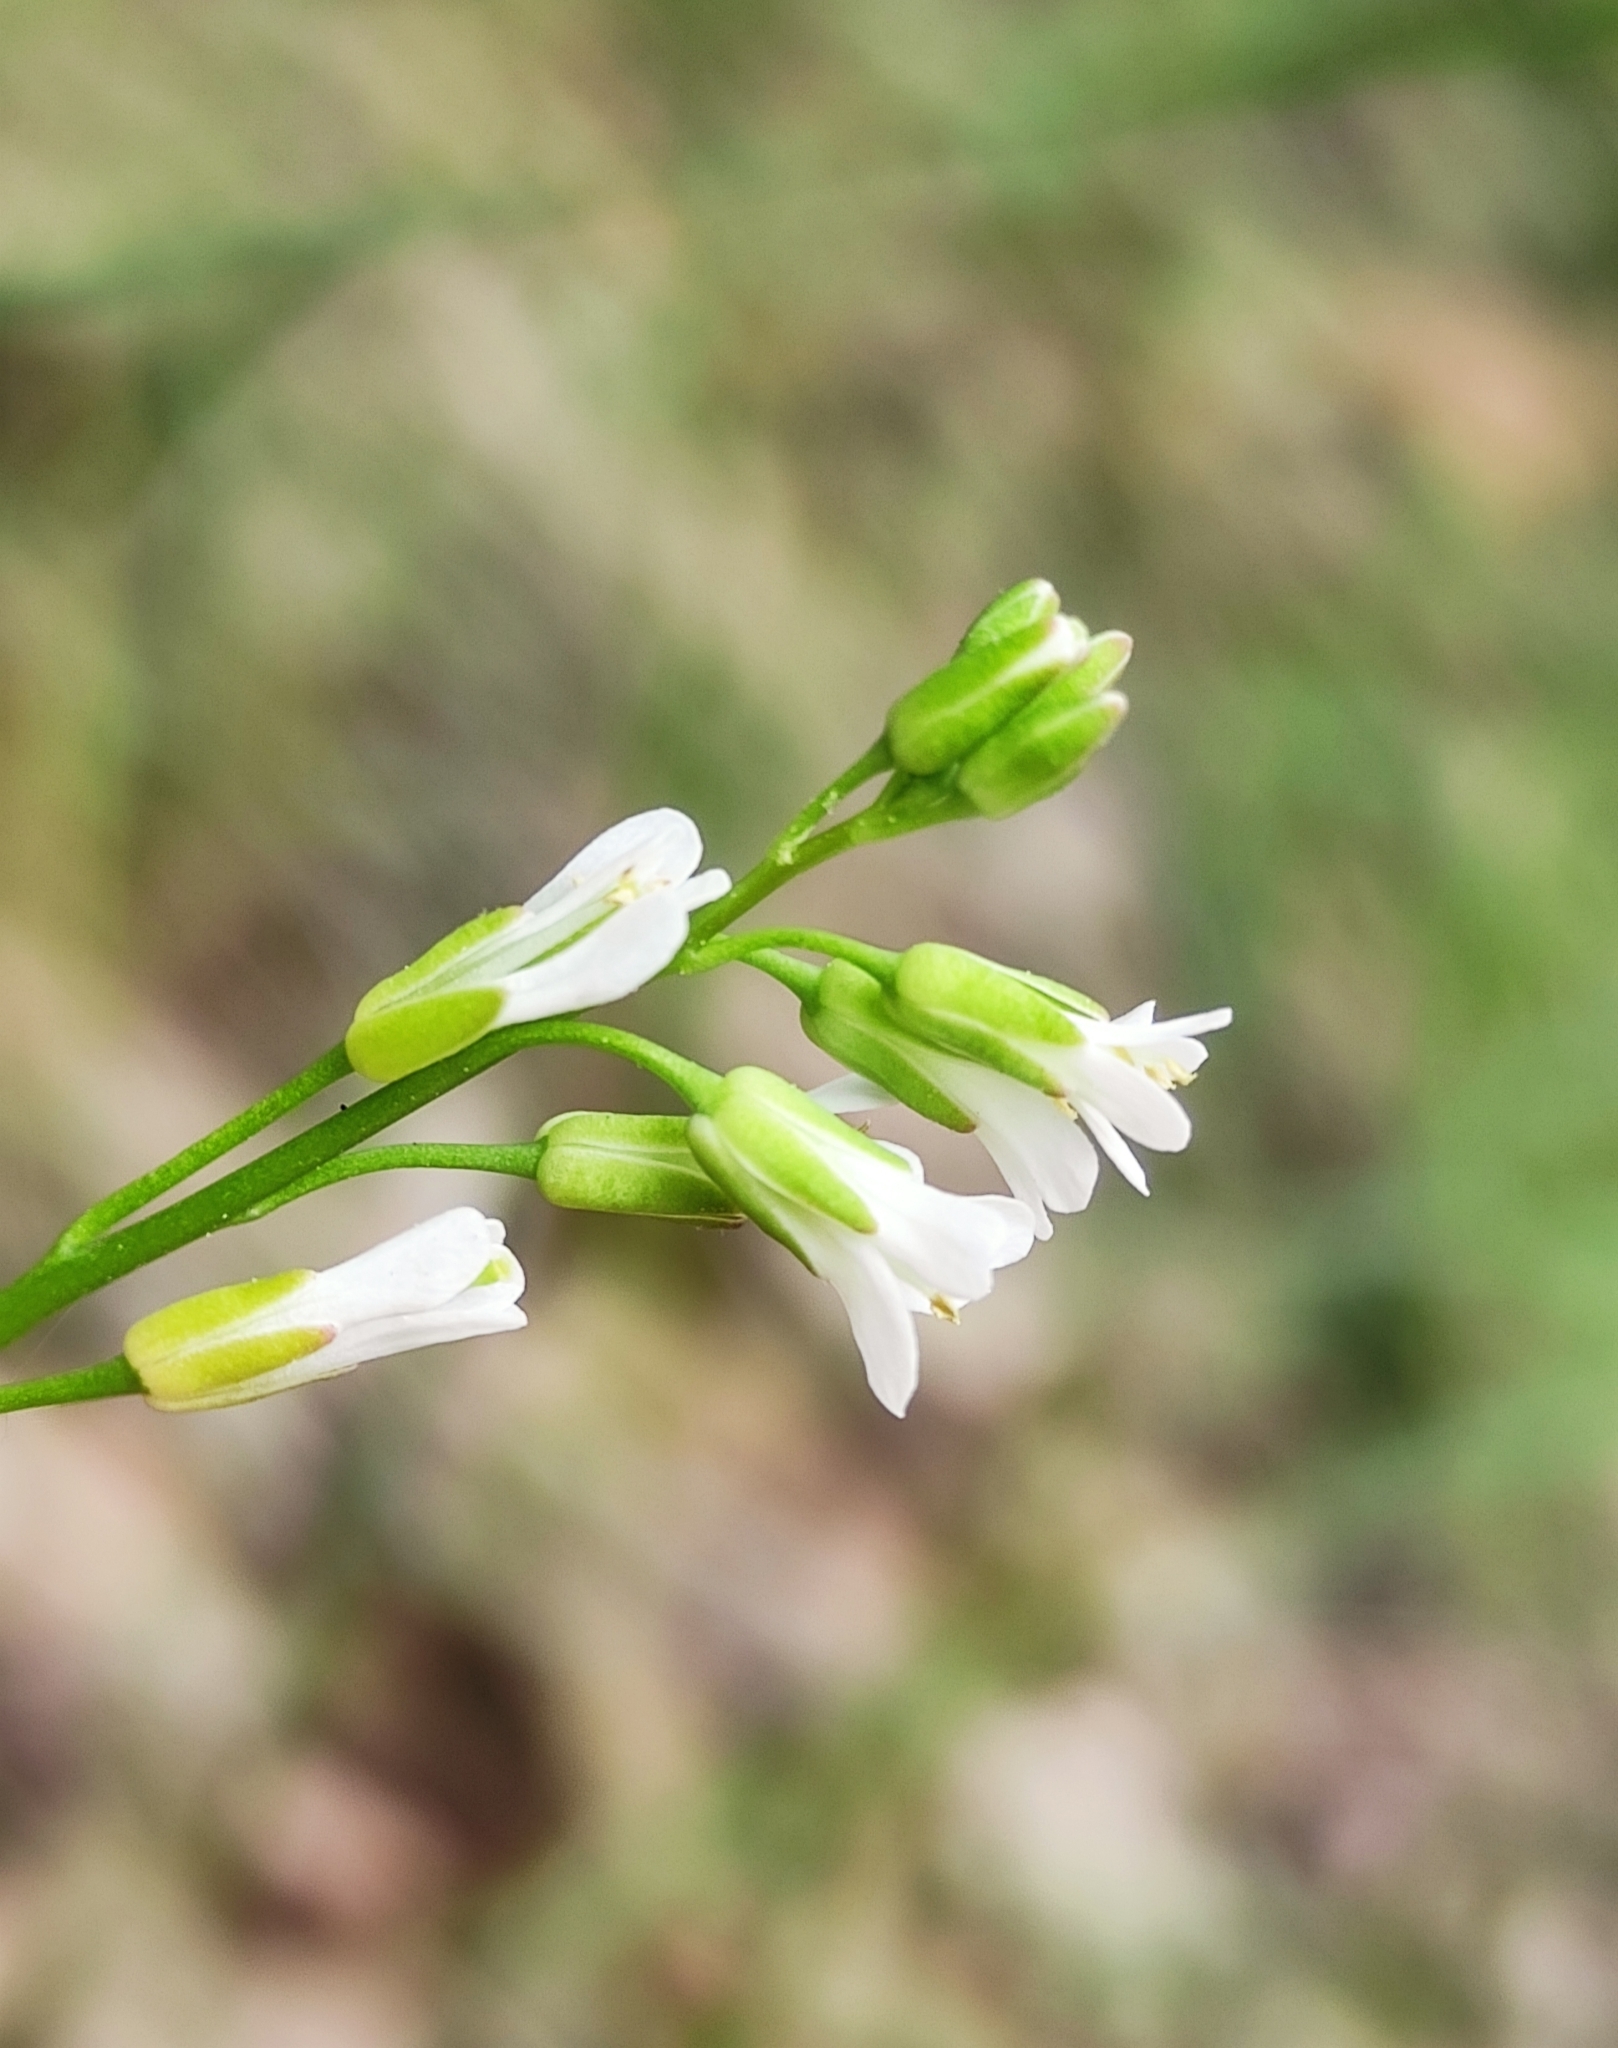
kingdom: Plantae
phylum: Tracheophyta
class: Magnoliopsida
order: Brassicales
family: Brassicaceae
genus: Arabis
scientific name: Arabis borealis
